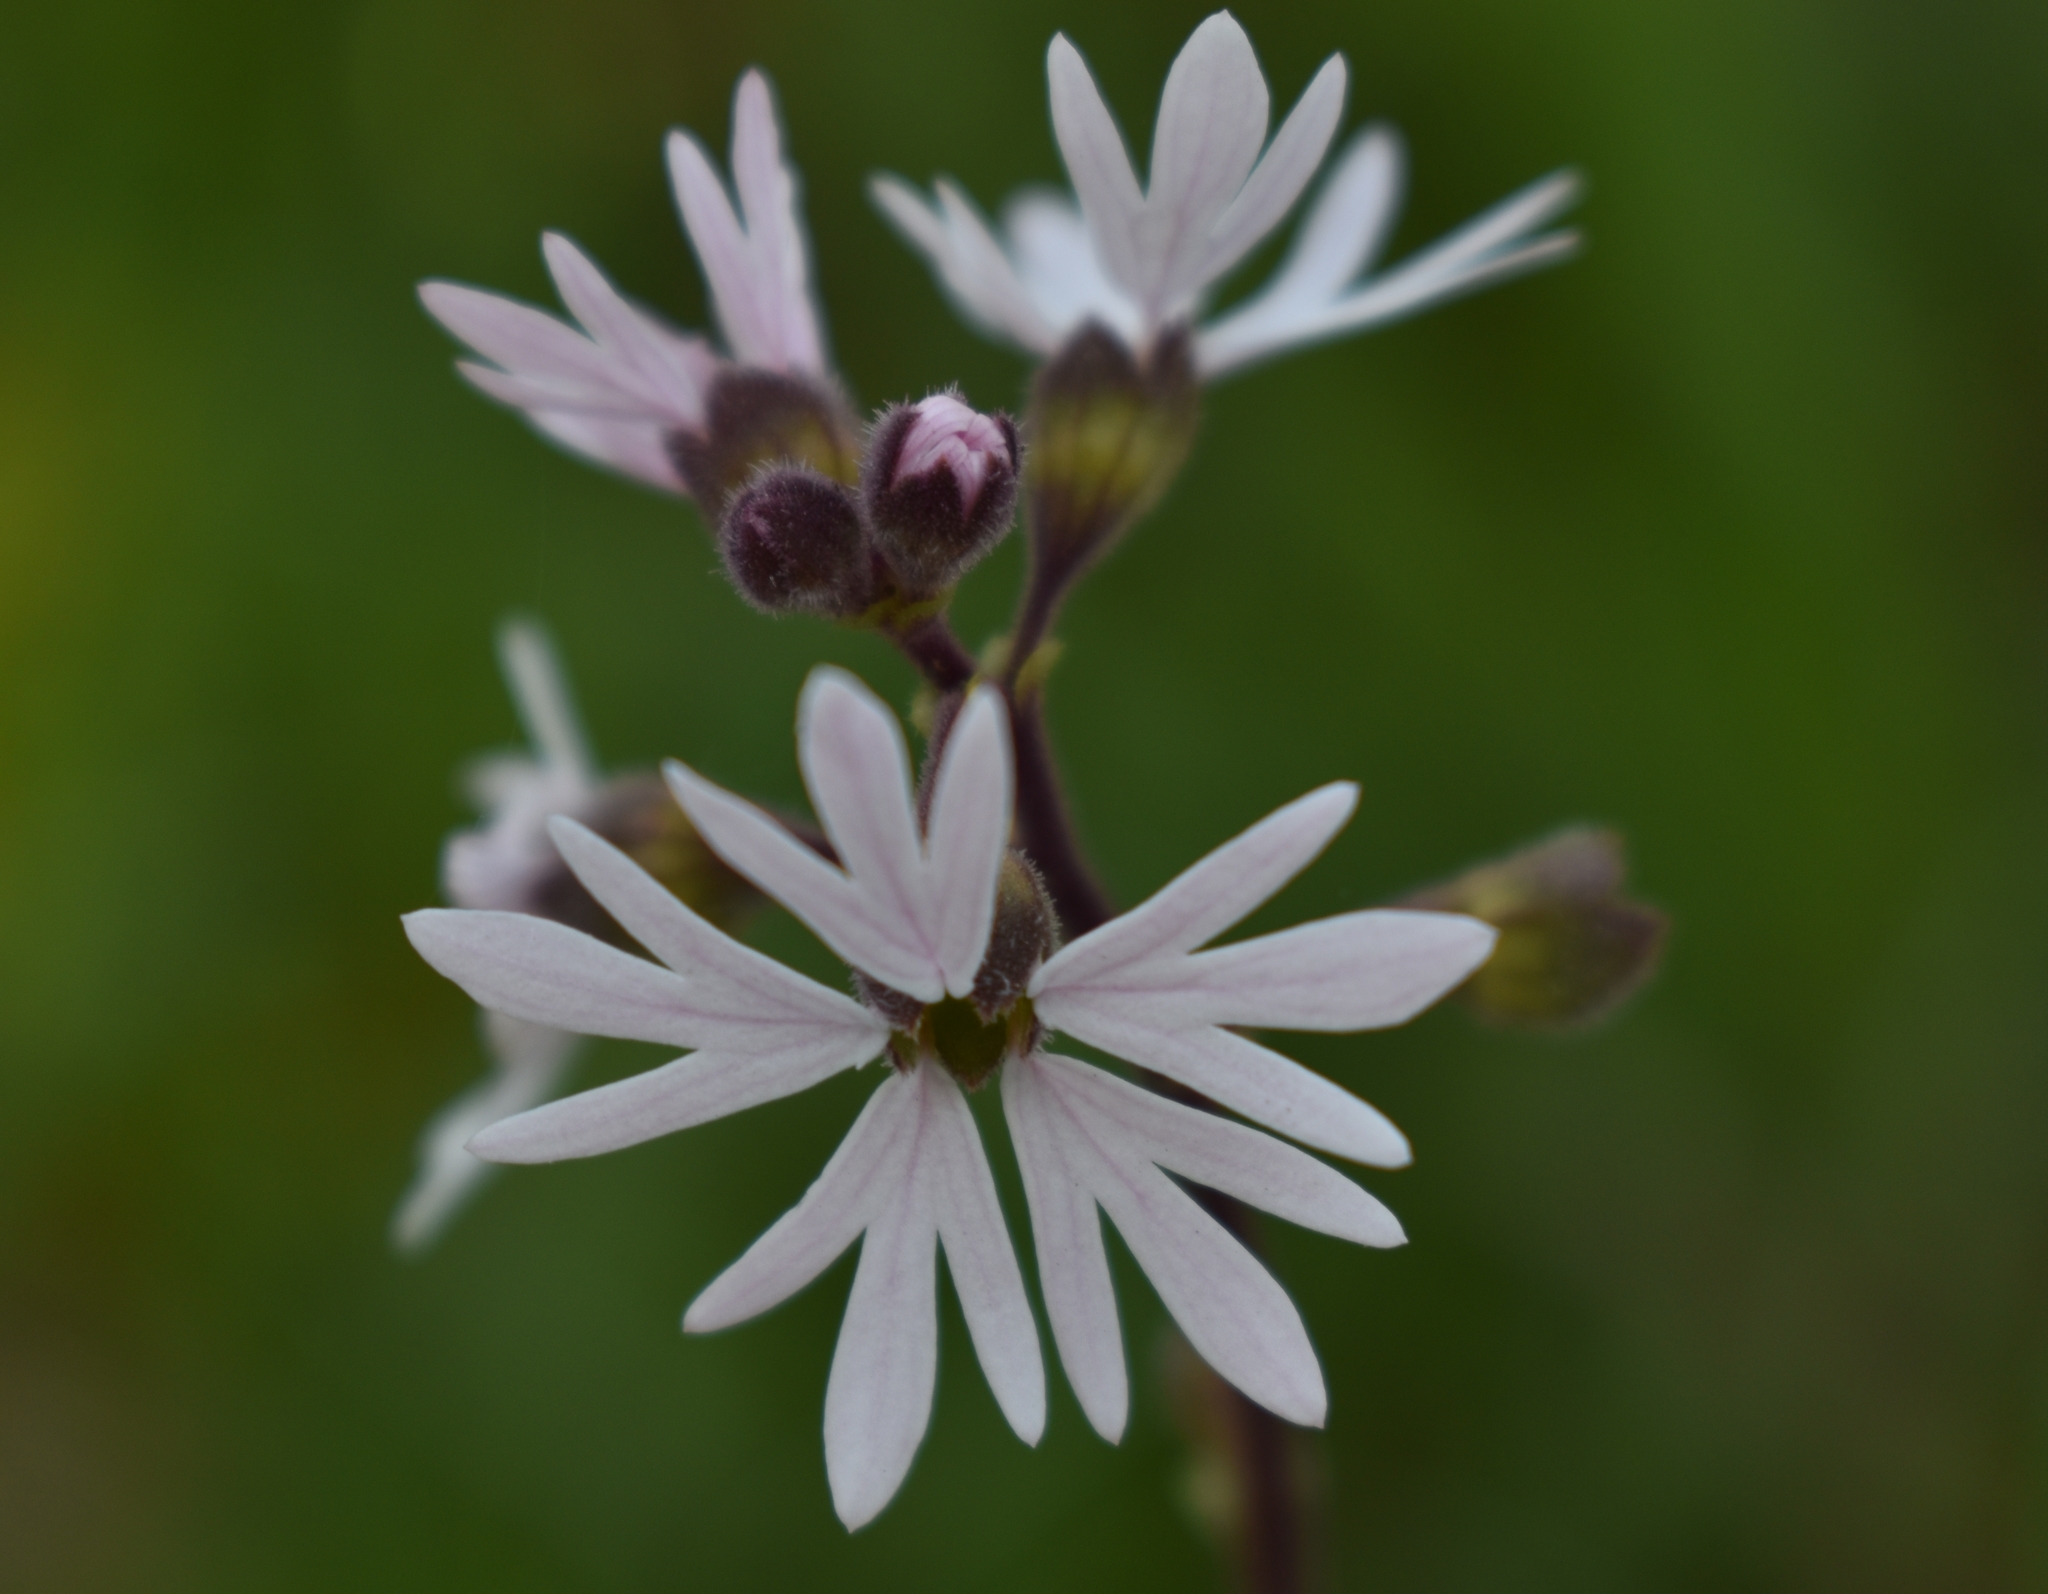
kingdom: Plantae
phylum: Tracheophyta
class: Magnoliopsida
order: Saxifragales
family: Saxifragaceae
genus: Lithophragma
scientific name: Lithophragma parviflorum
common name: Small-flowered fringe-cup
